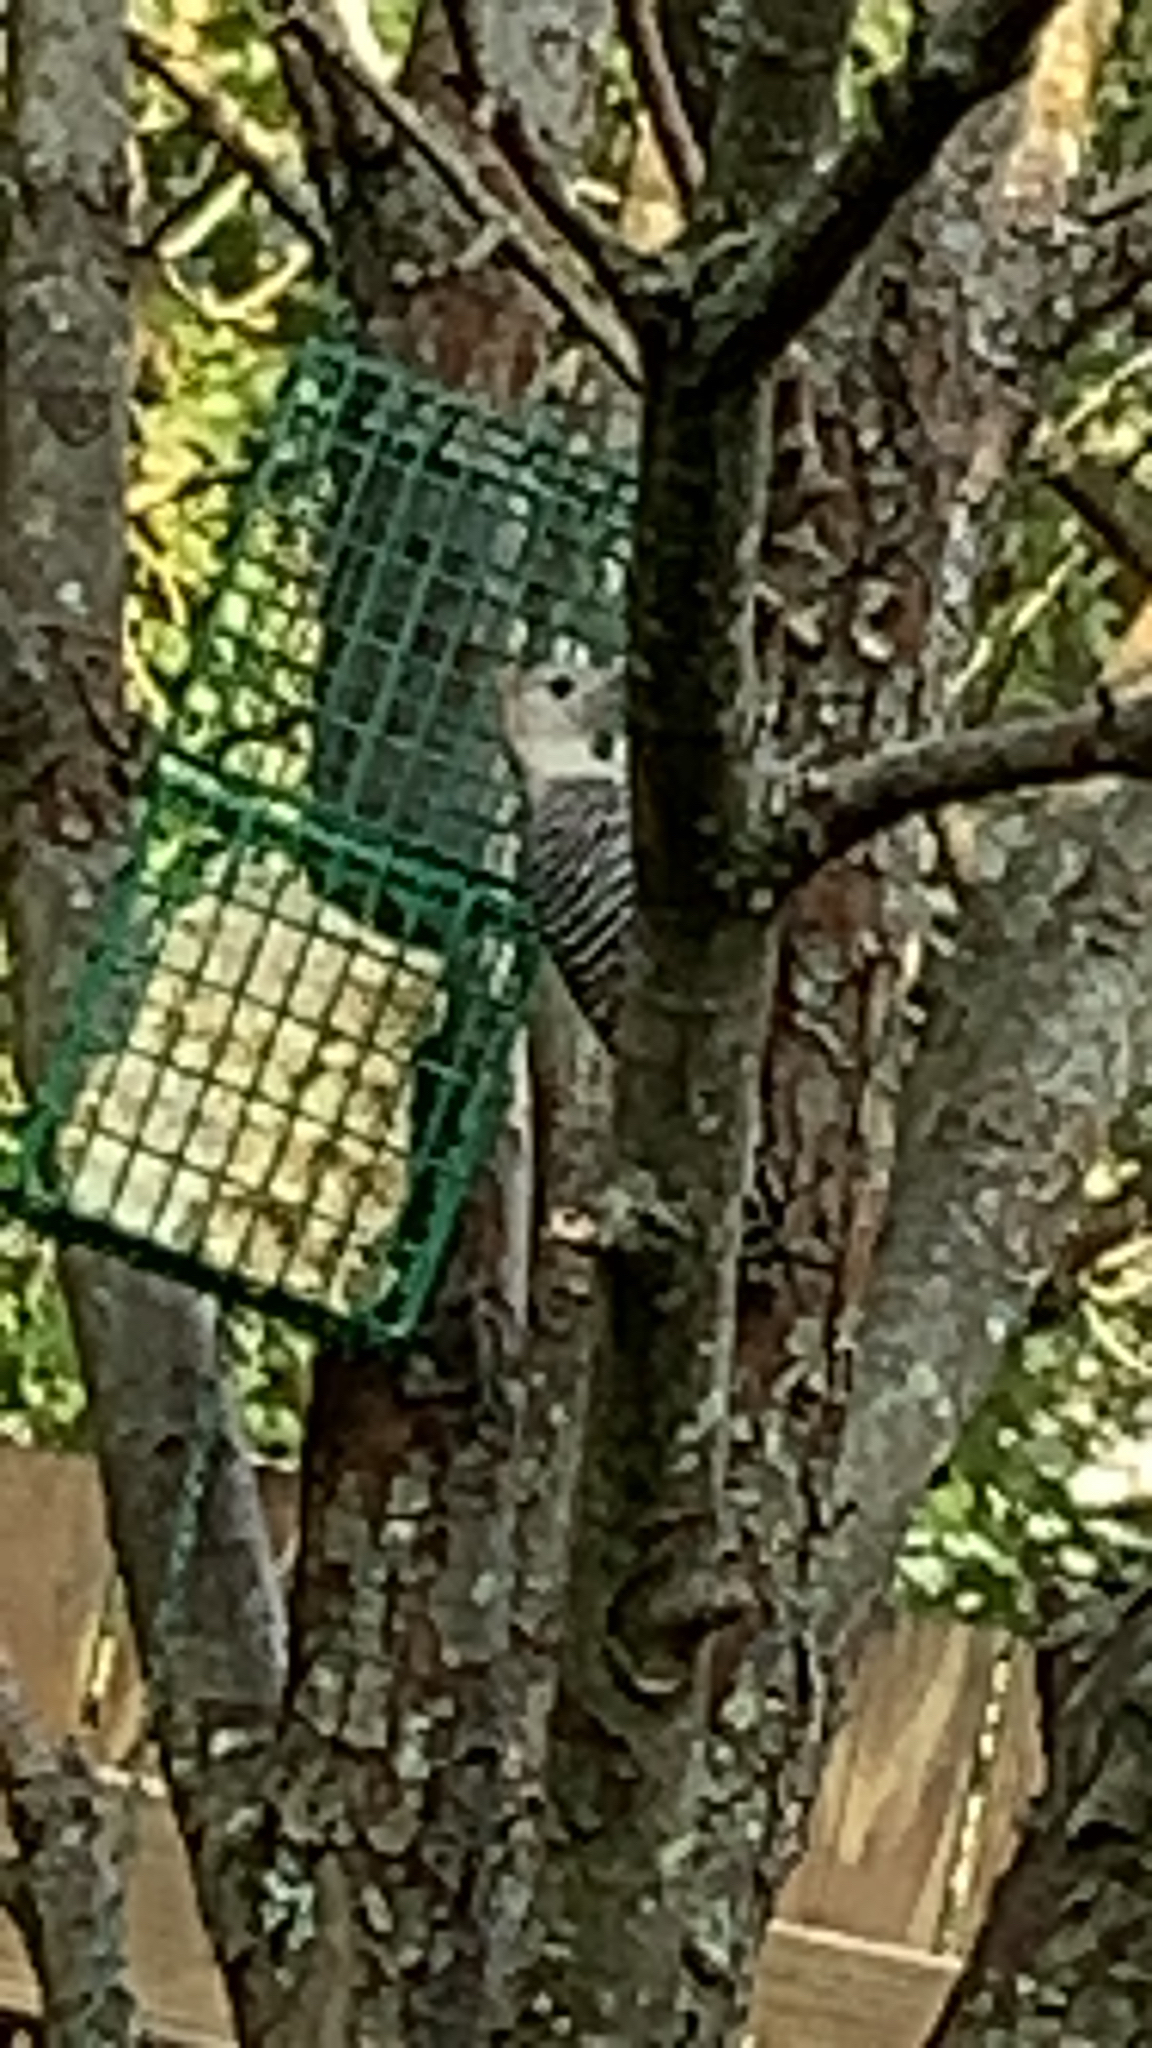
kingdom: Animalia
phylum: Chordata
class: Aves
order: Piciformes
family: Picidae
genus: Melanerpes
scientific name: Melanerpes carolinus
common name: Red-bellied woodpecker
